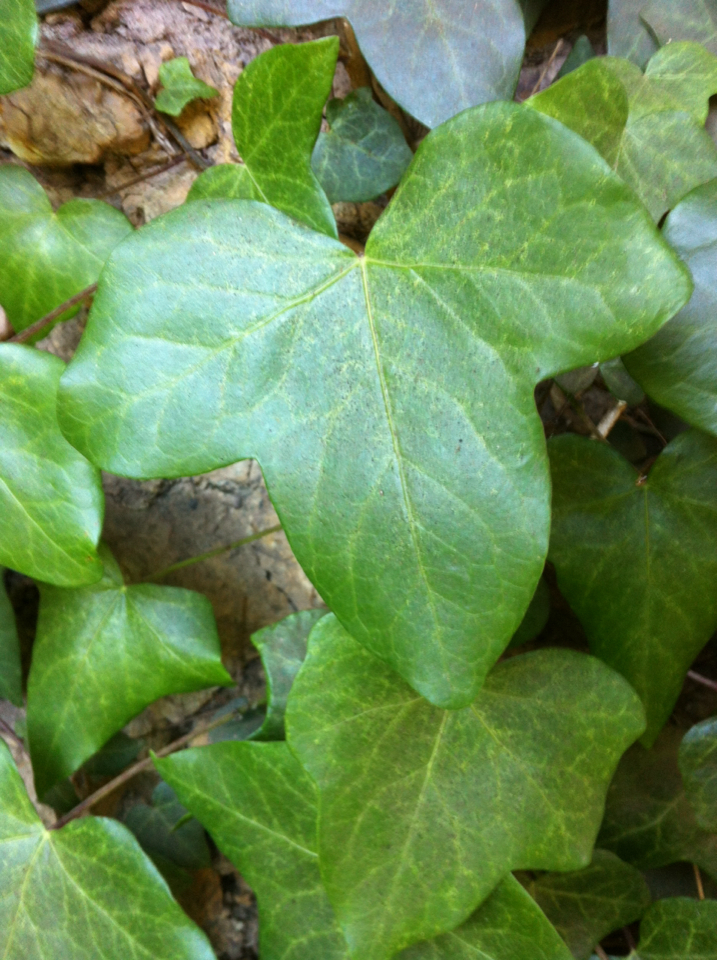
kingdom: Plantae
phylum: Tracheophyta
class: Magnoliopsida
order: Apiales
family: Araliaceae
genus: Hedera
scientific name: Hedera helix
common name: Ivy
